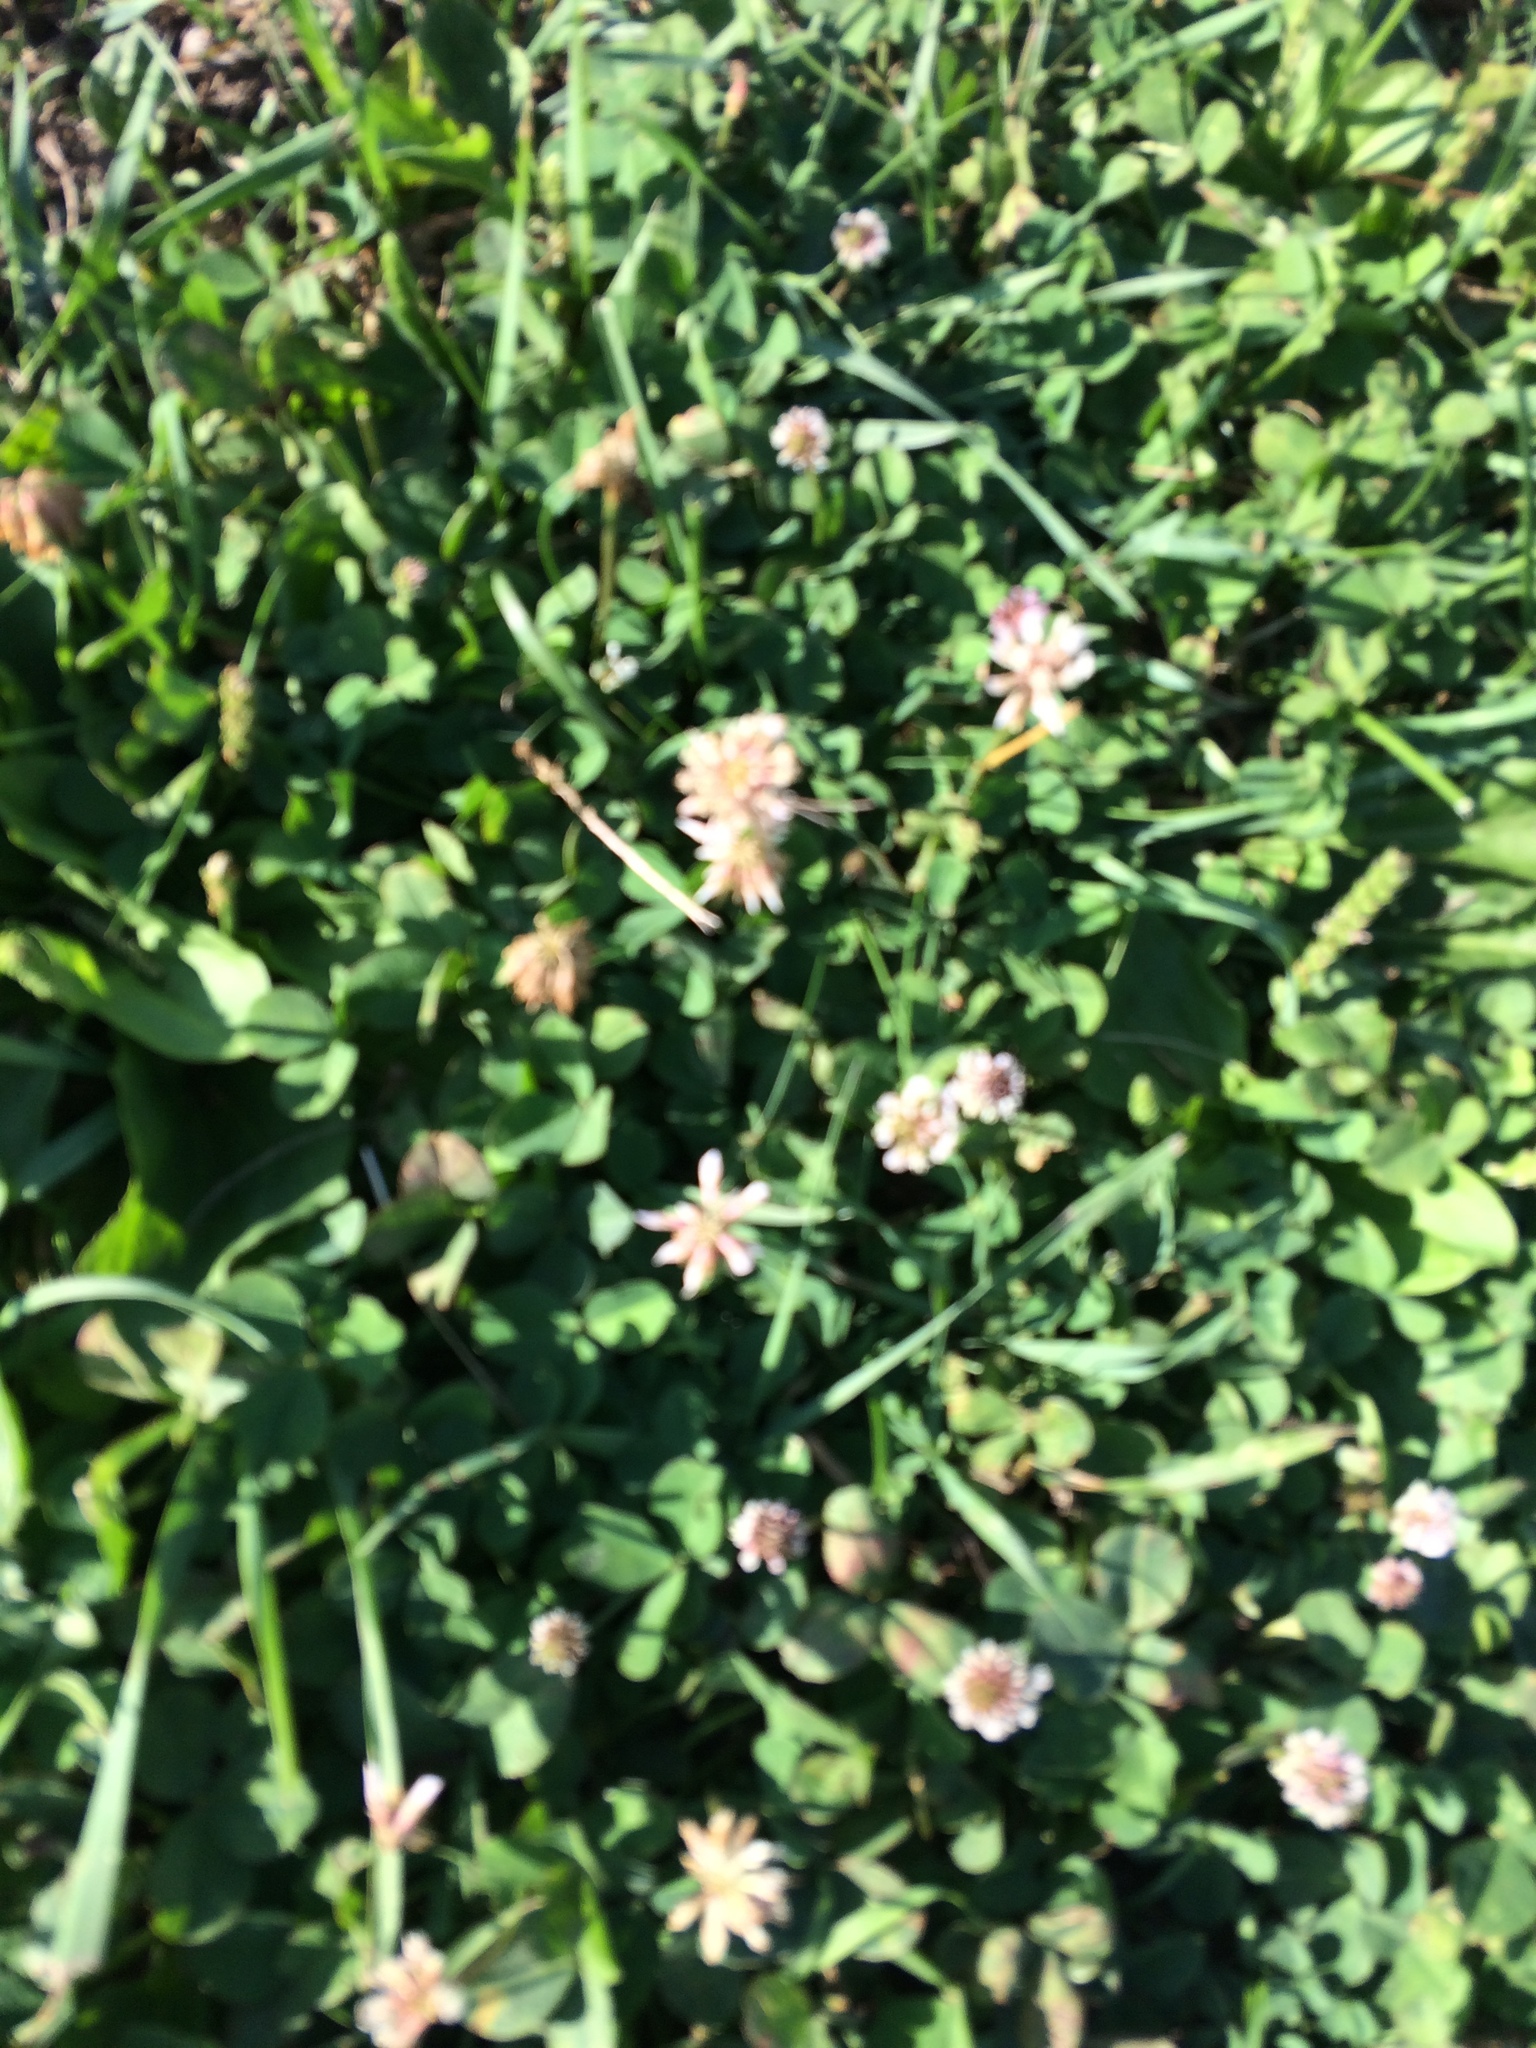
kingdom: Plantae
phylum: Tracheophyta
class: Magnoliopsida
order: Fabales
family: Fabaceae
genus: Trifolium
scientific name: Trifolium repens
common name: White clover
